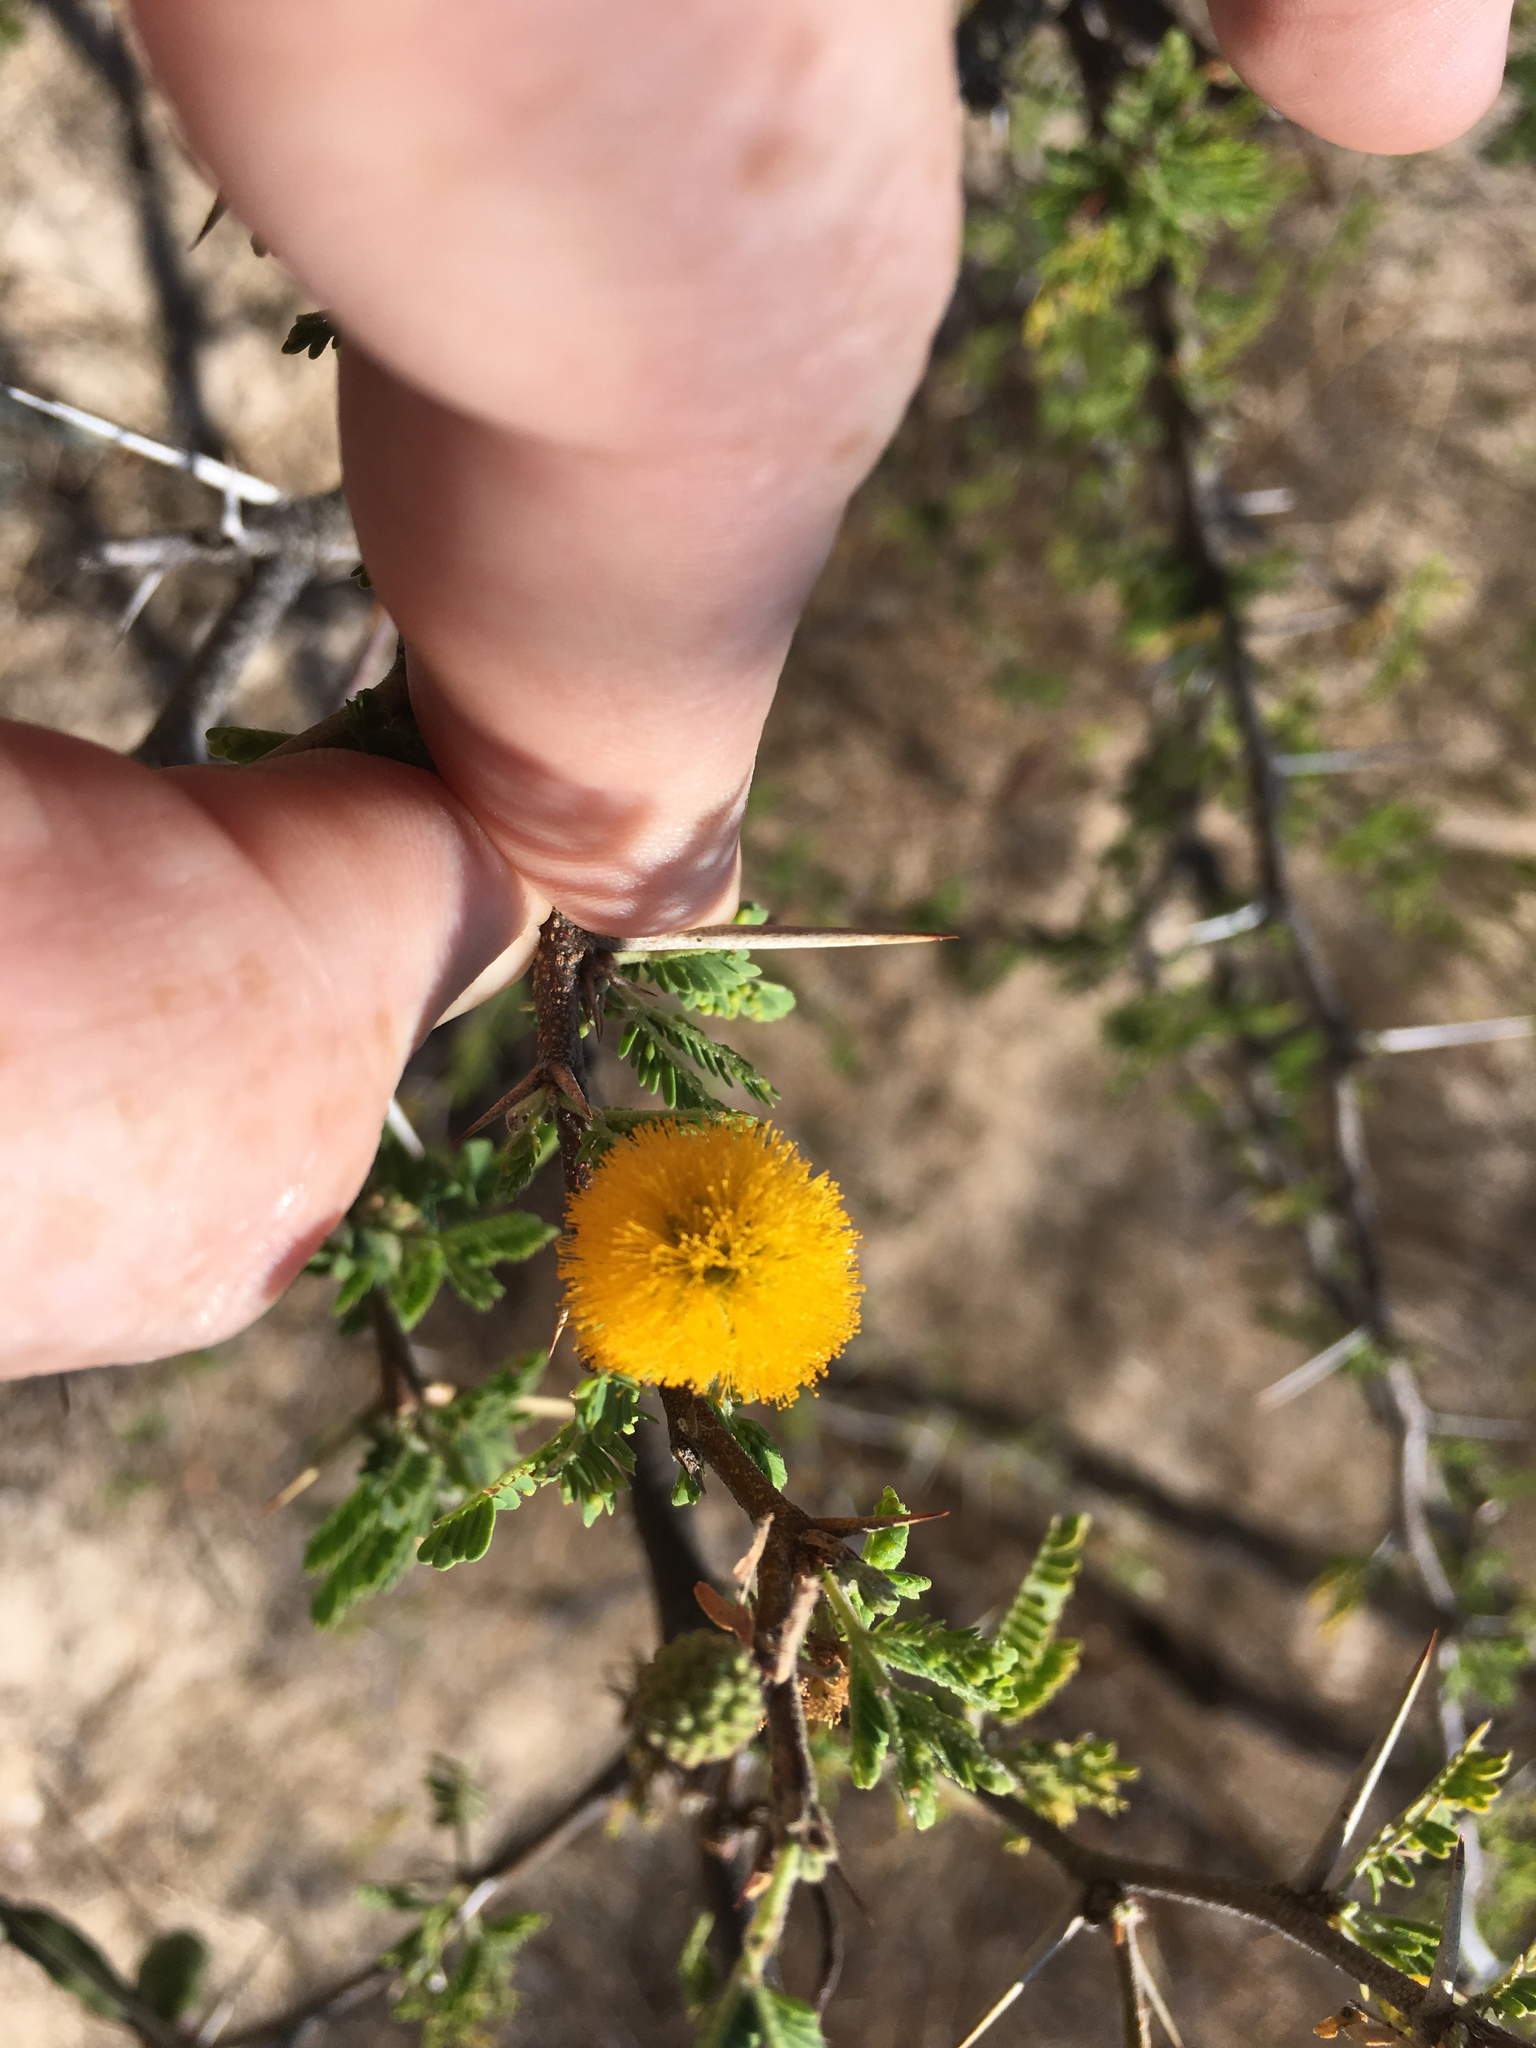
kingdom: Plantae
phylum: Tracheophyta
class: Magnoliopsida
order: Fabales
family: Fabaceae
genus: Vachellia
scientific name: Vachellia farnesiana
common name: Sweet acacia
